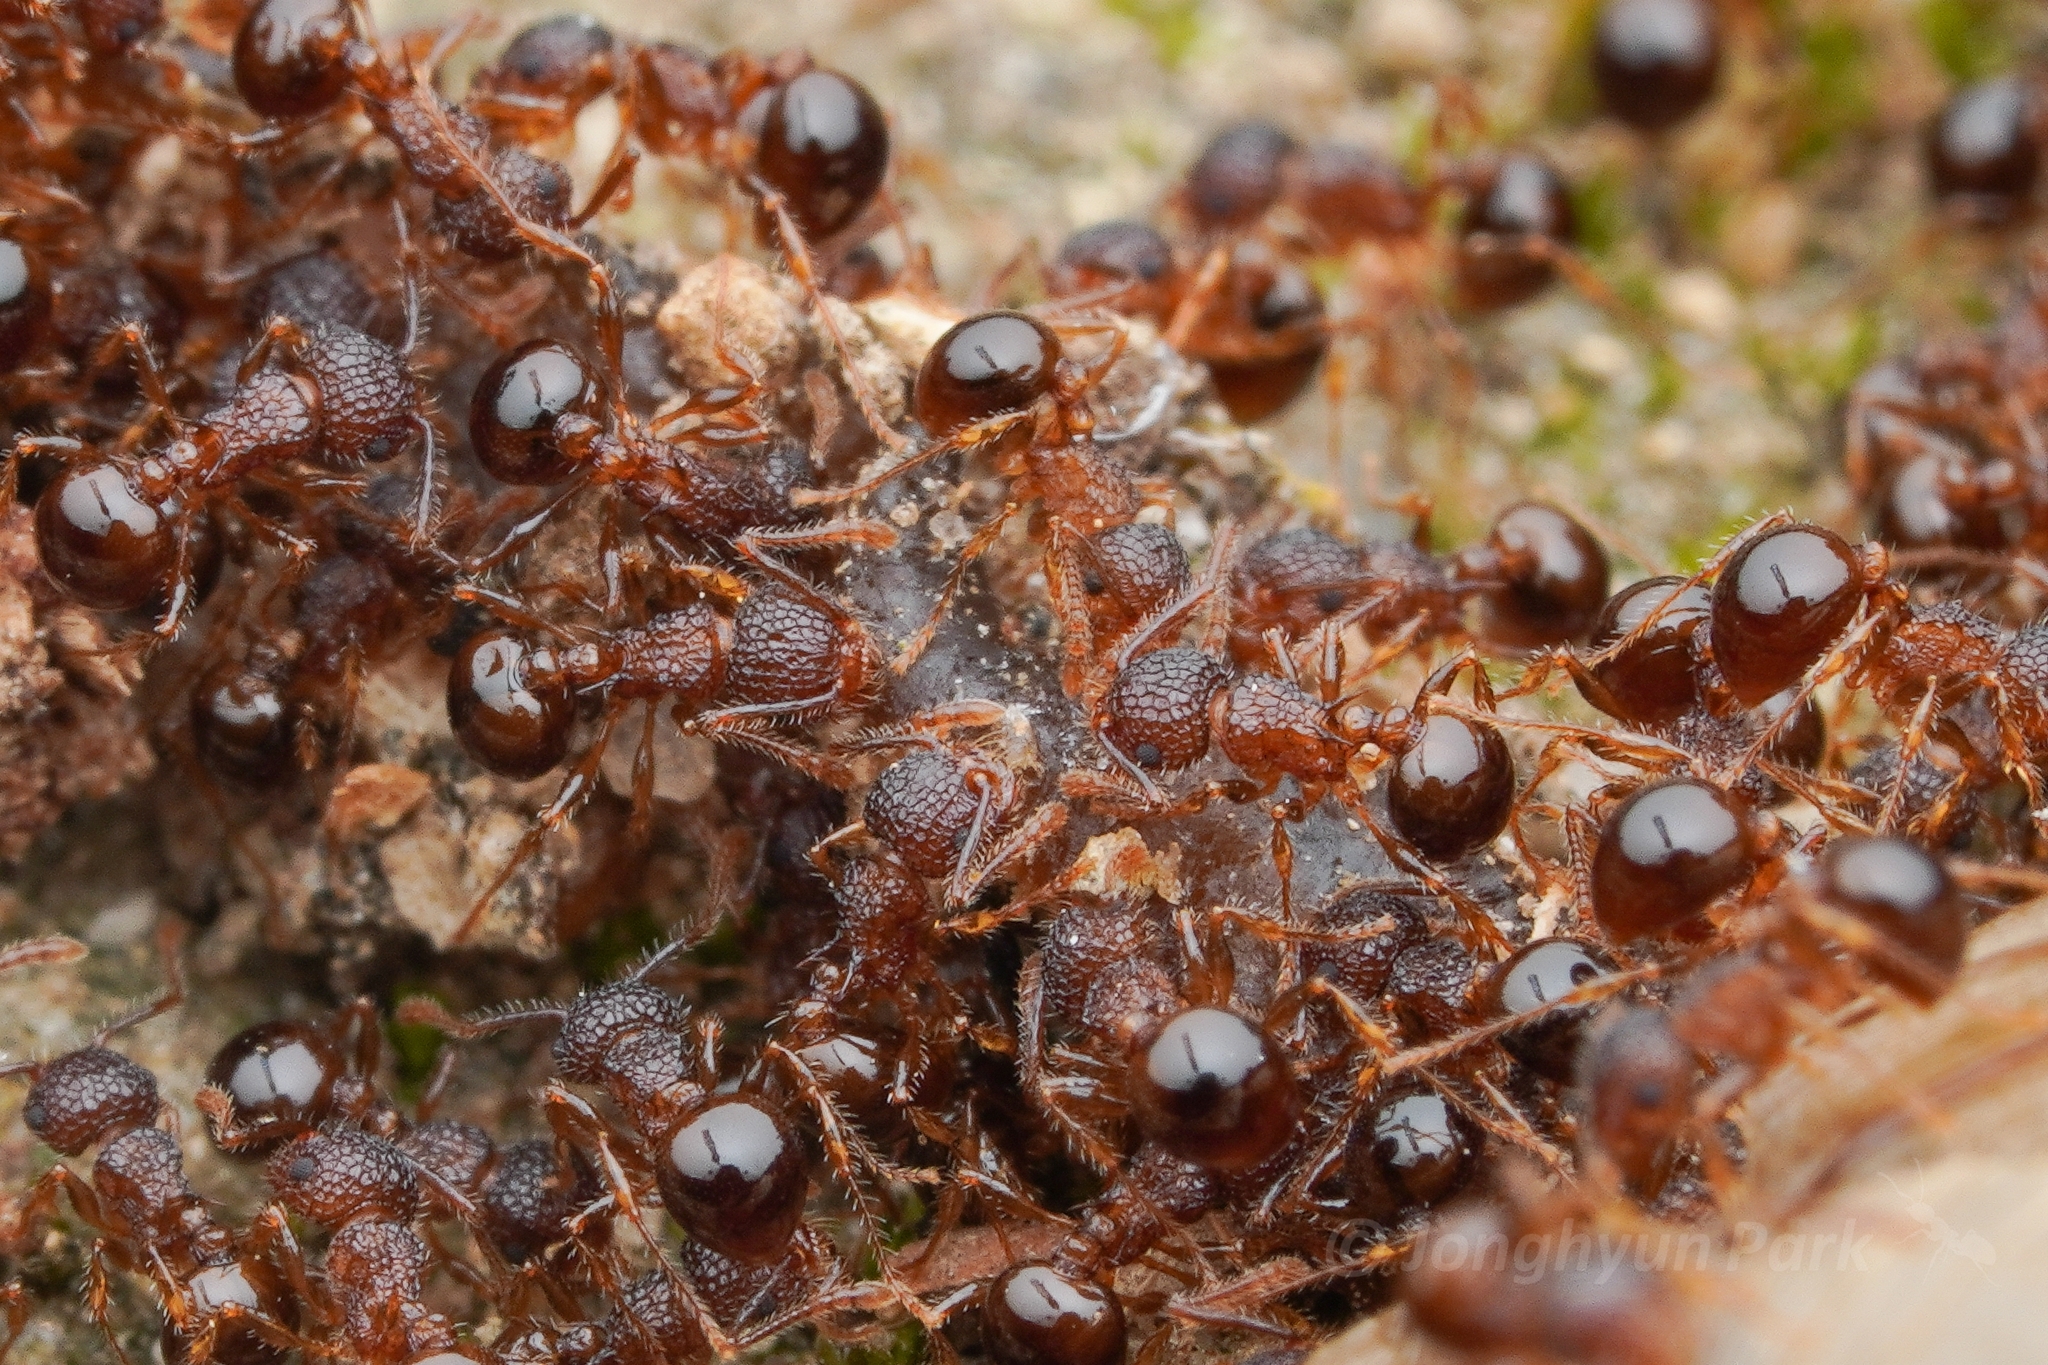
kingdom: Animalia
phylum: Arthropoda
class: Insecta
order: Hymenoptera
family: Formicidae
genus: Pristomyrmex
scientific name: Pristomyrmex punctatus
